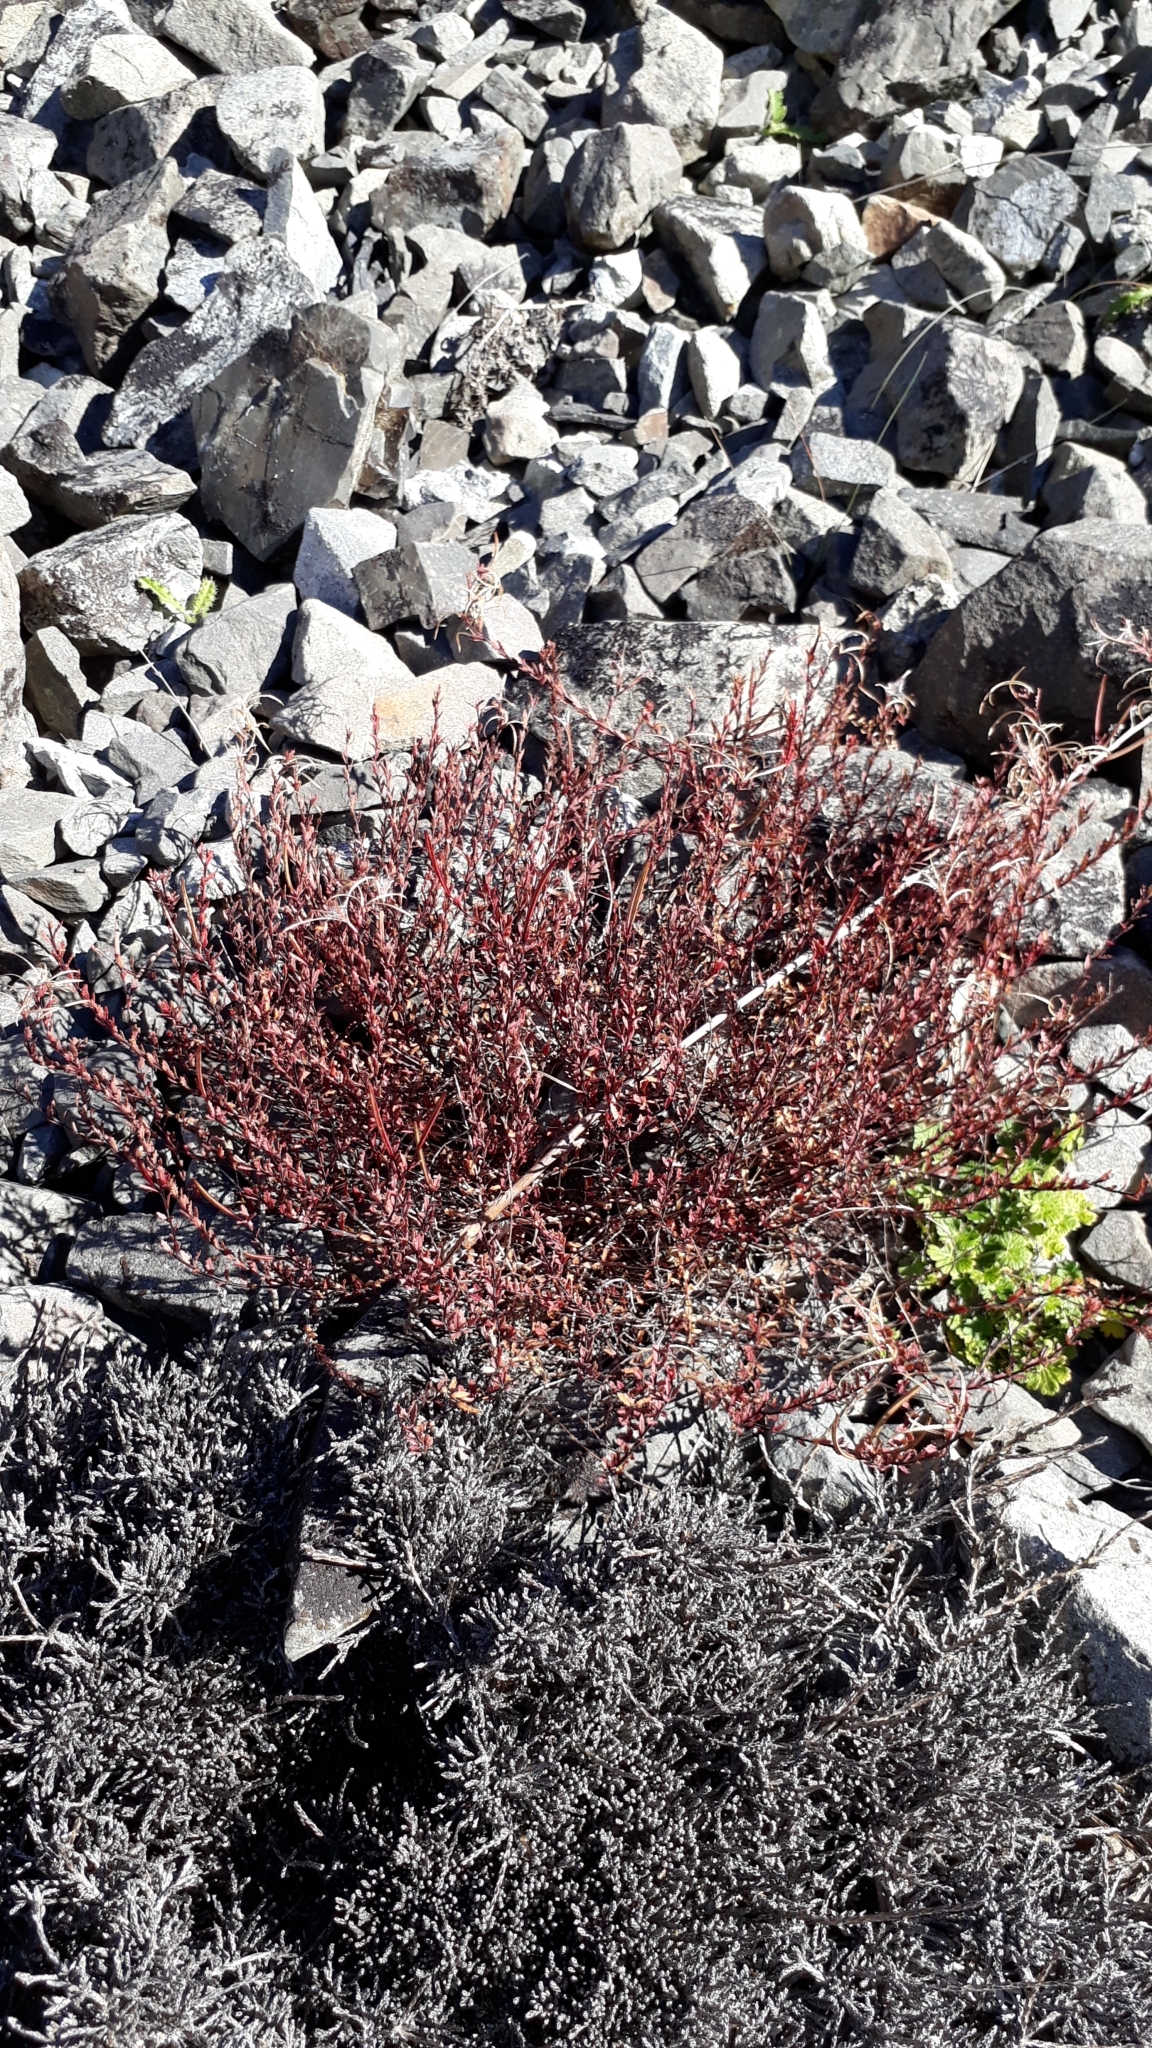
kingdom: Plantae
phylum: Tracheophyta
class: Magnoliopsida
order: Myrtales
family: Onagraceae
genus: Epilobium
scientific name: Epilobium melanocaulon
